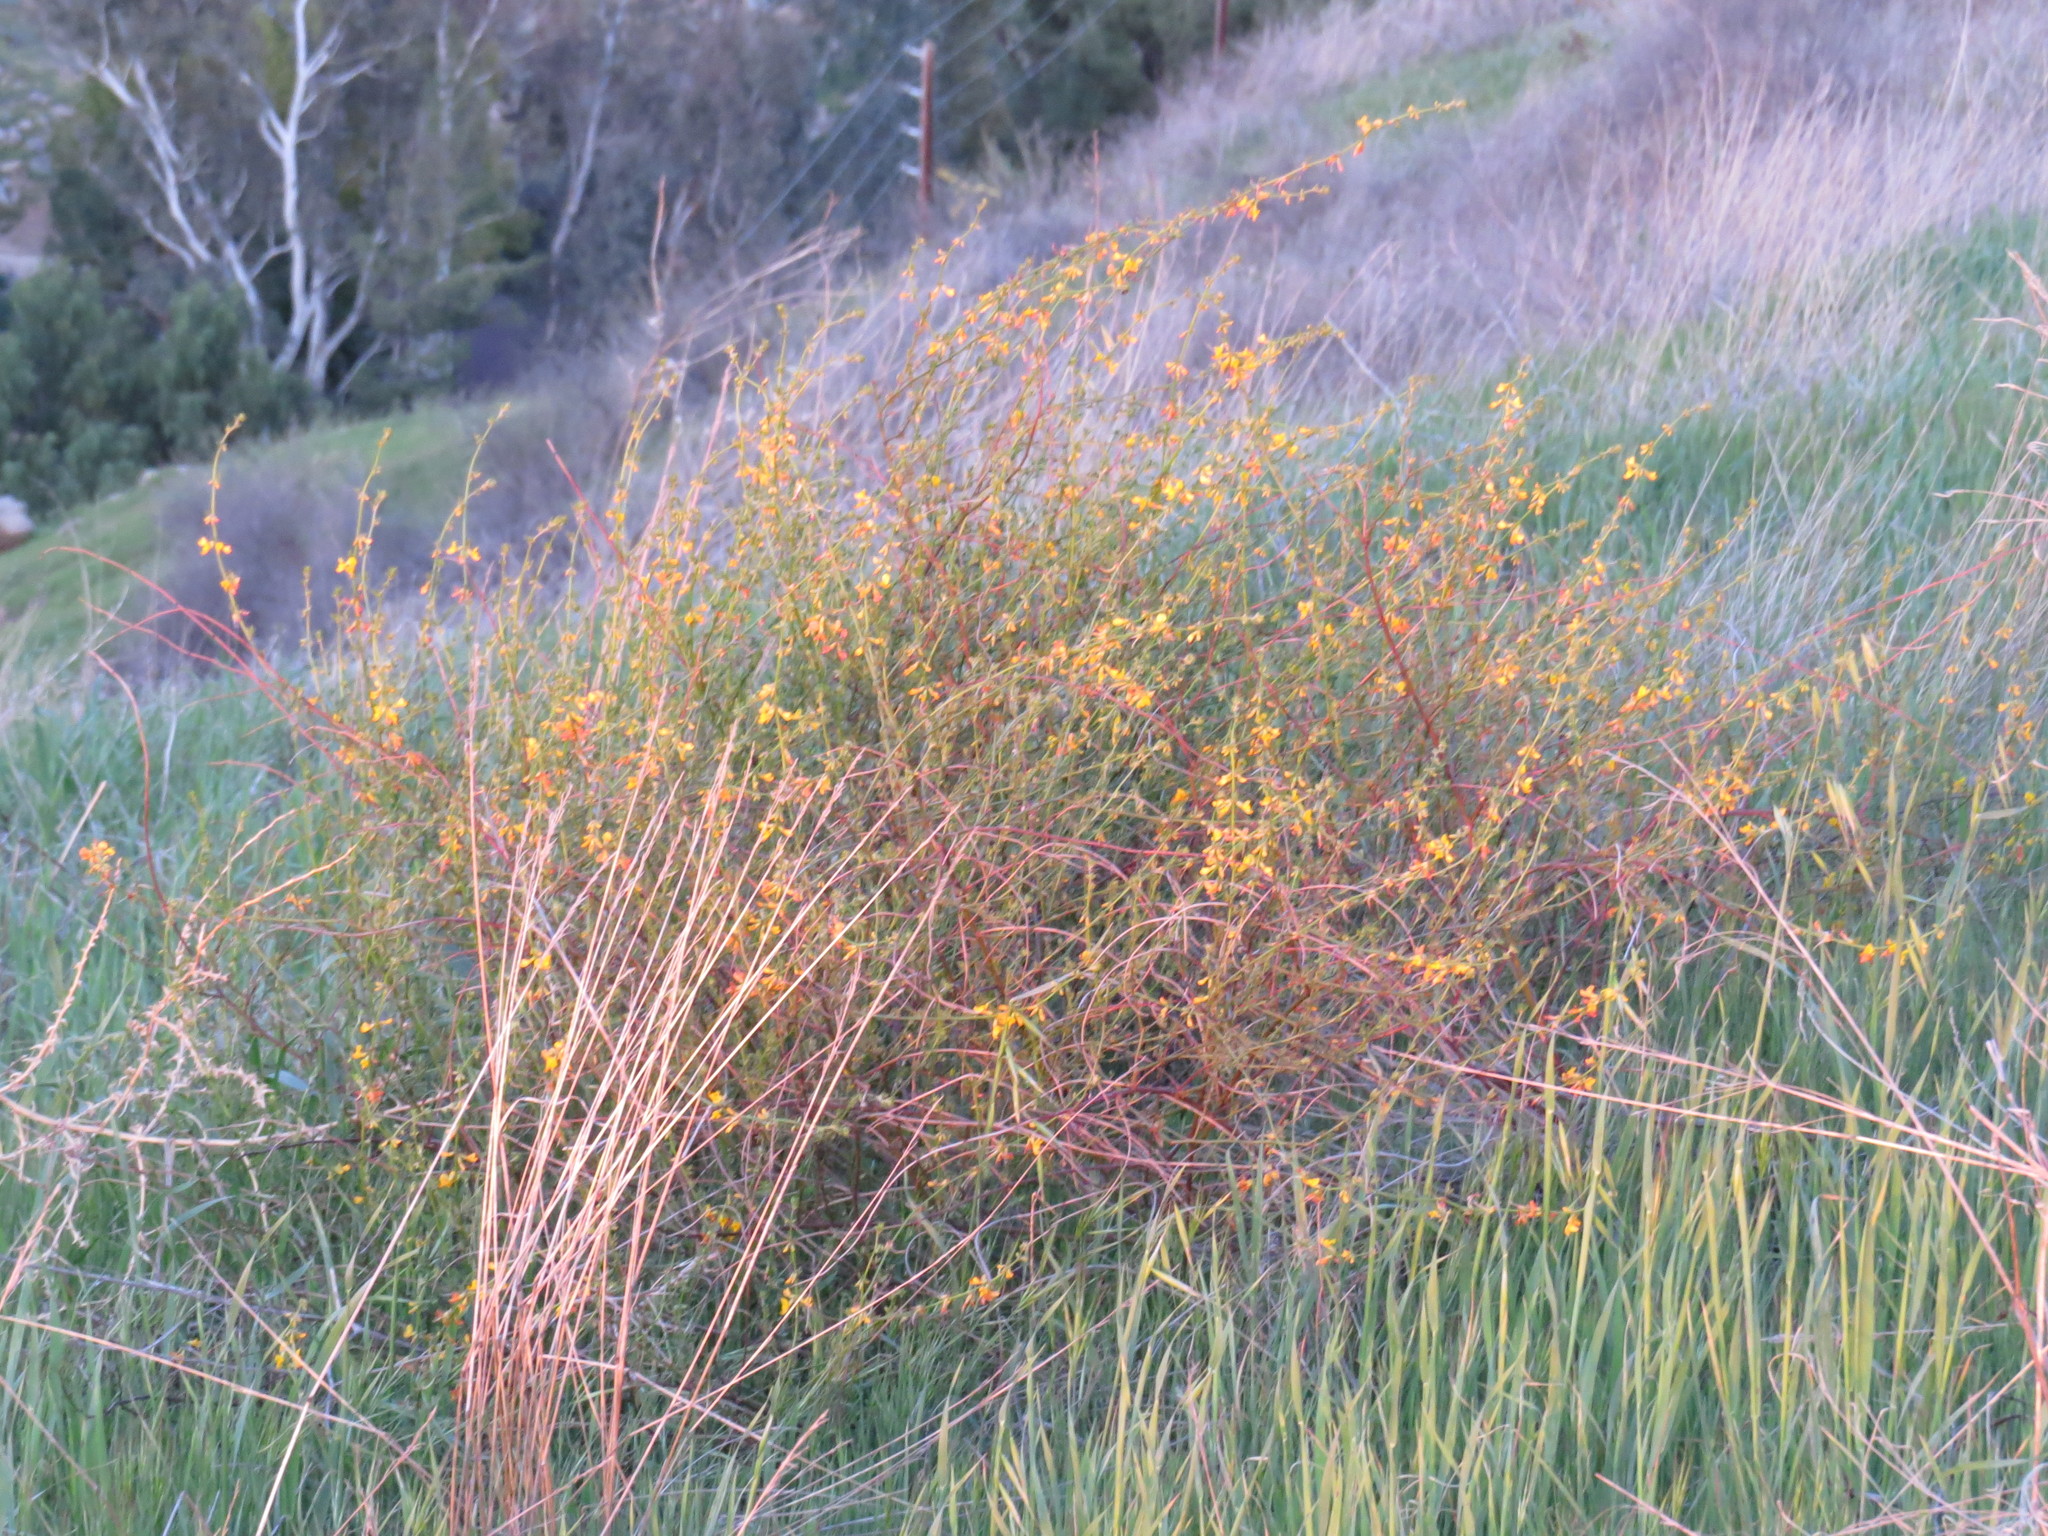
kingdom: Plantae
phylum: Tracheophyta
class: Magnoliopsida
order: Fabales
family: Fabaceae
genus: Acmispon
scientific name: Acmispon glaber
